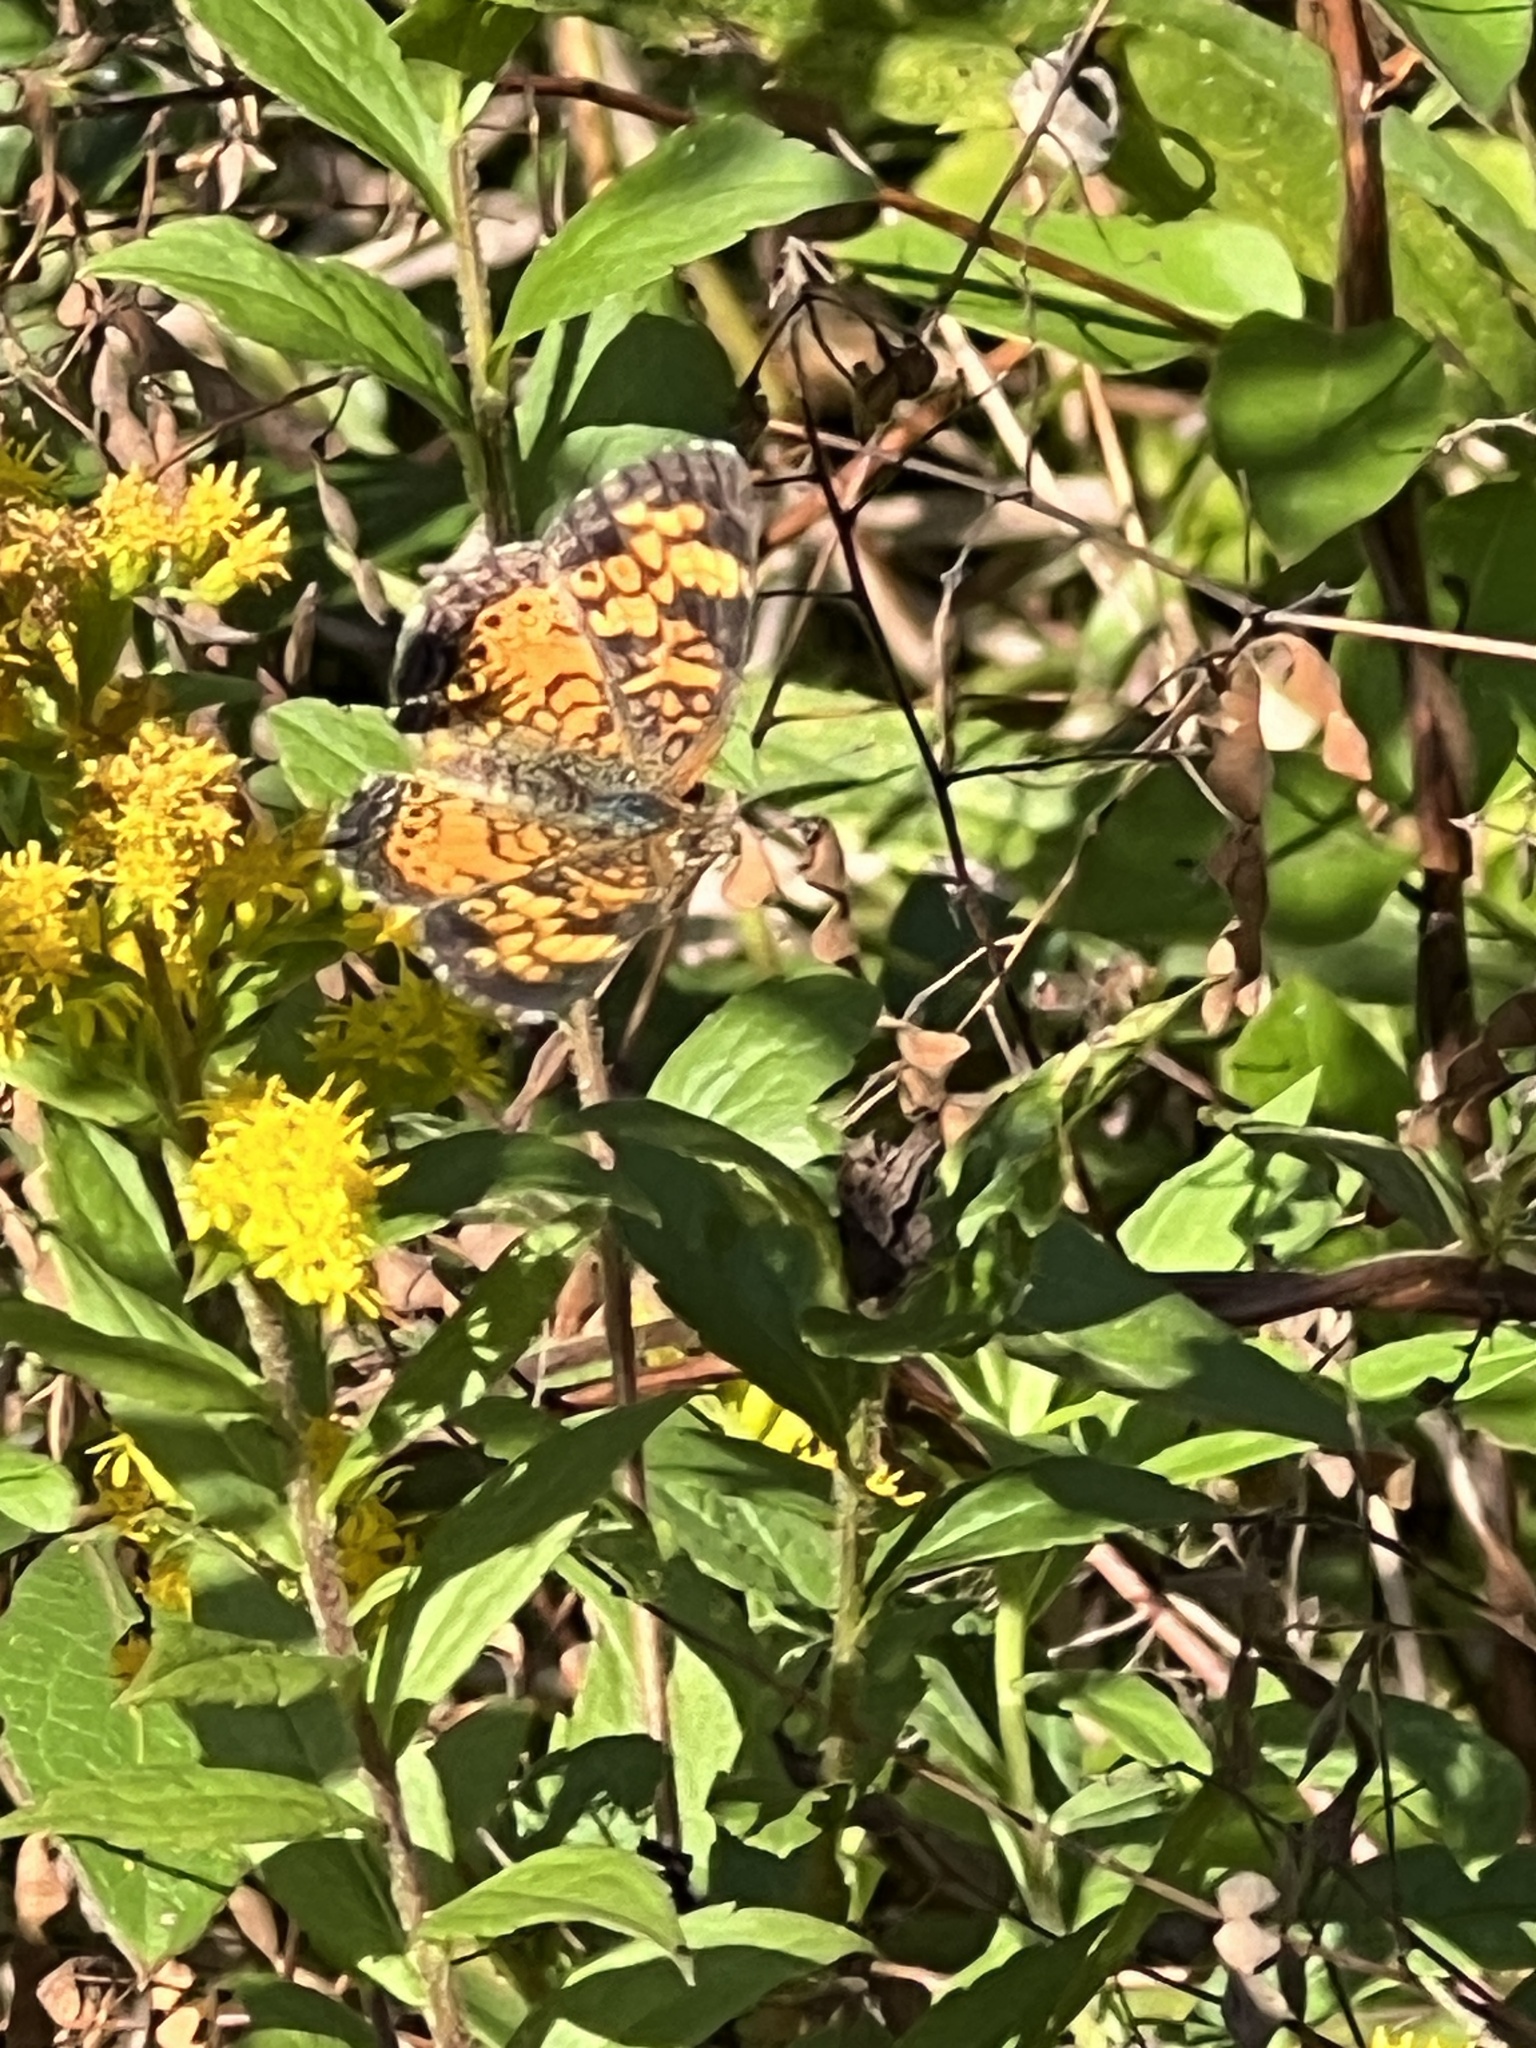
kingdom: Animalia
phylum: Arthropoda
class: Insecta
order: Lepidoptera
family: Nymphalidae
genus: Phyciodes
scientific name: Phyciodes tharos
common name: Pearl crescent
